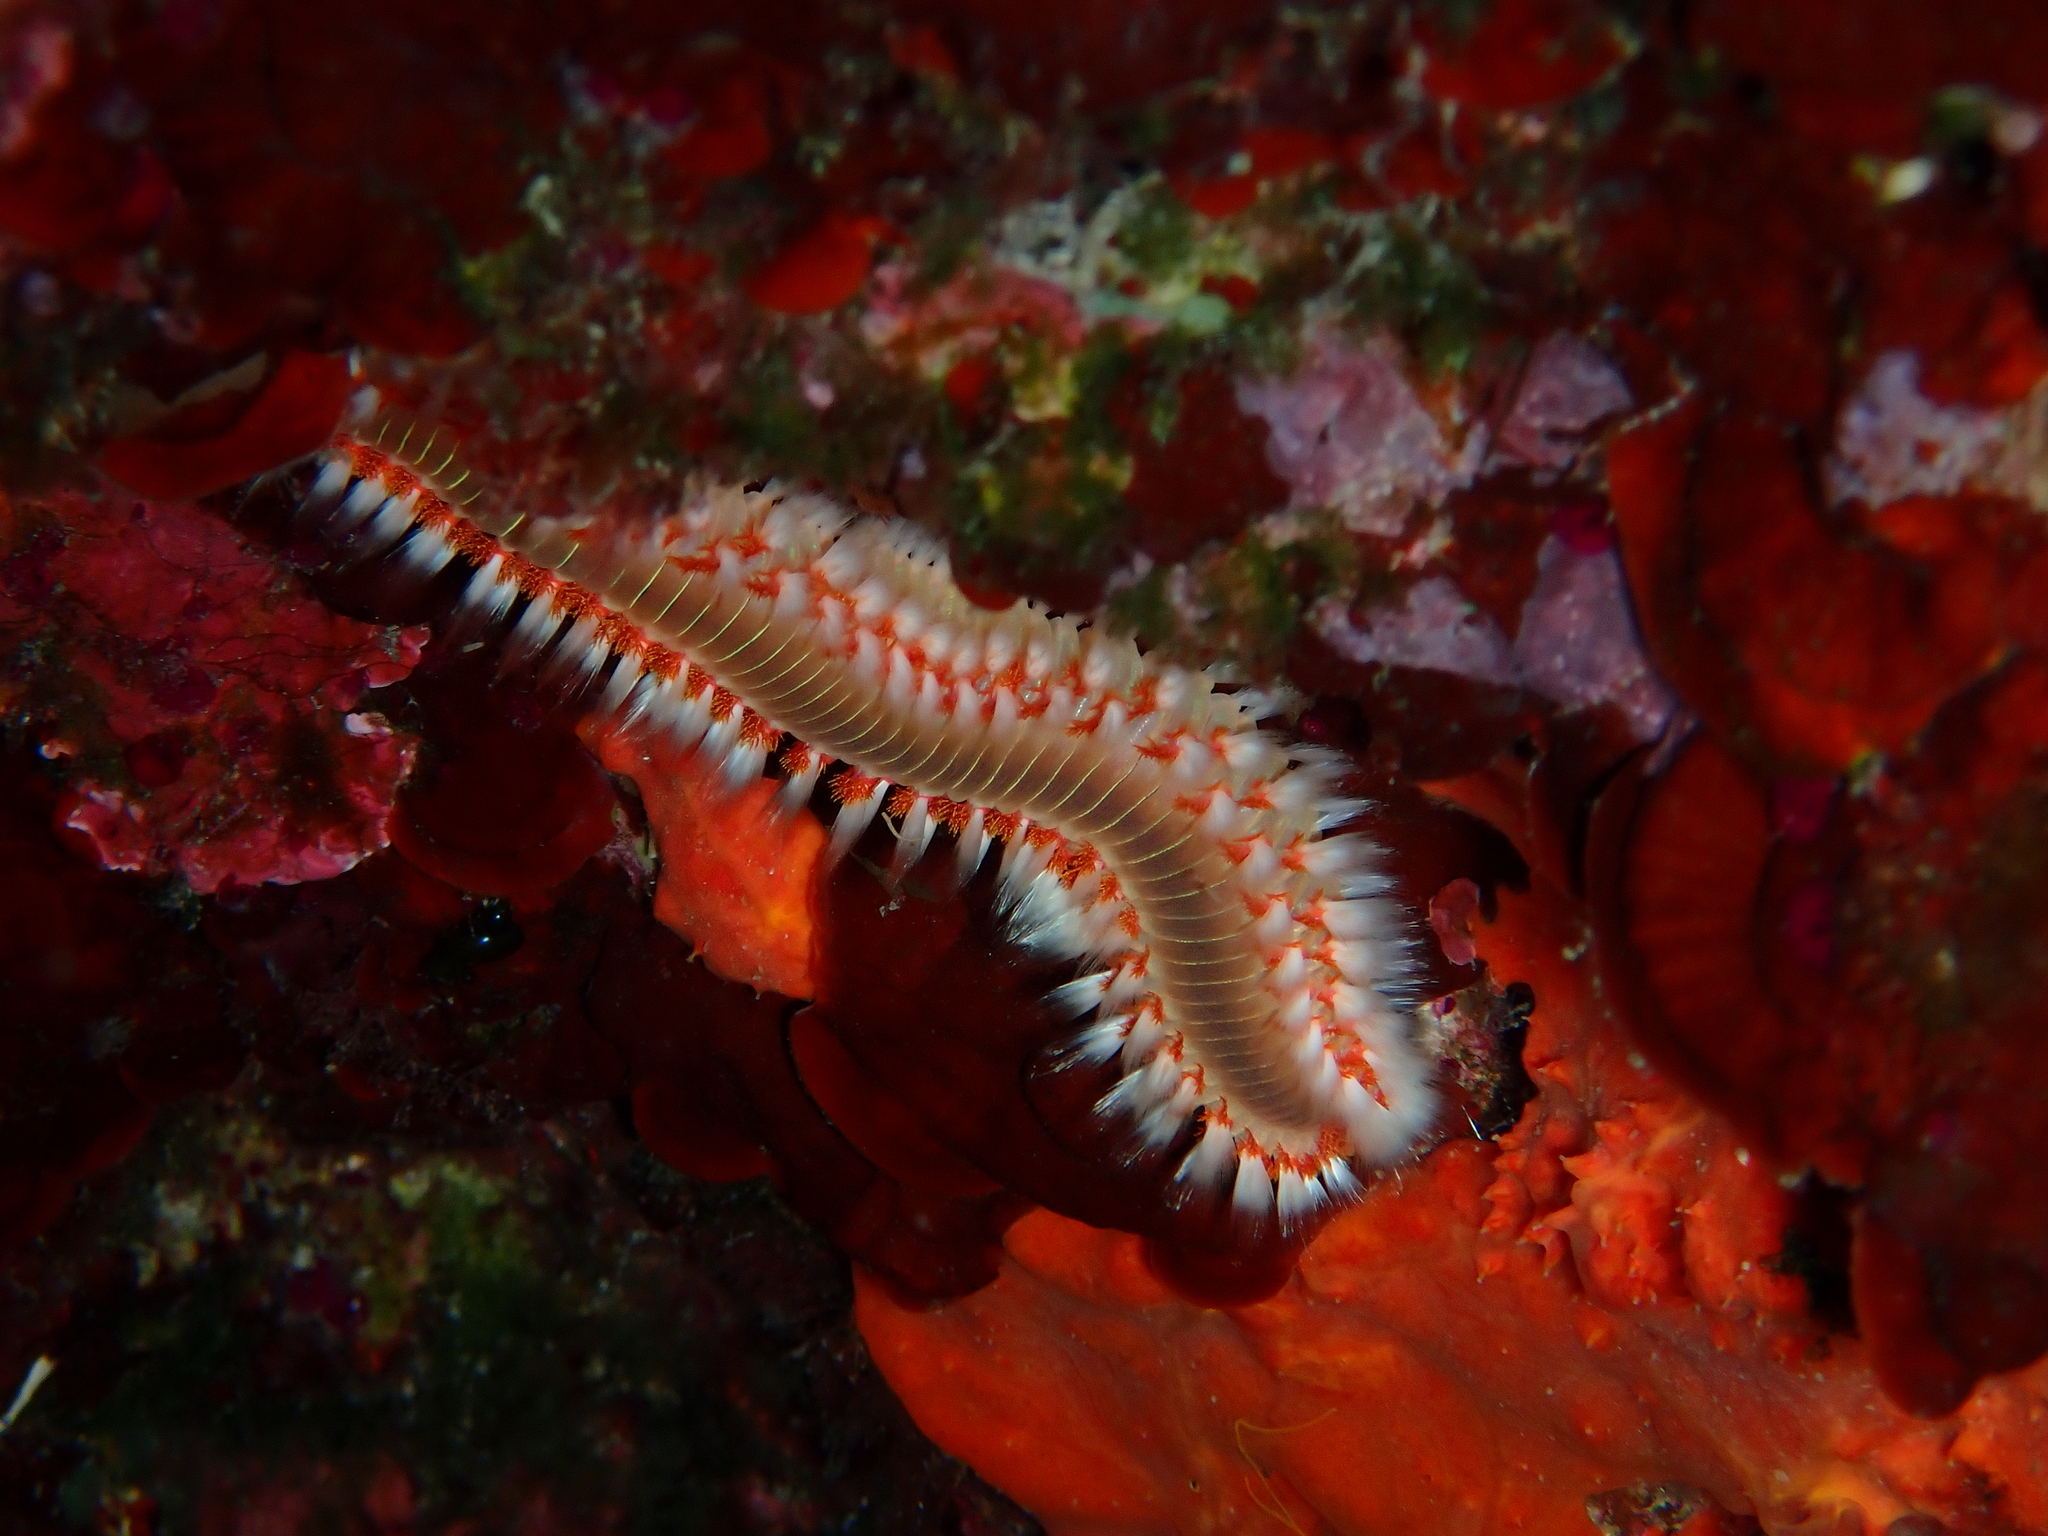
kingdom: Animalia
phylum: Annelida
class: Polychaeta
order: Amphinomida
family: Amphinomidae
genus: Hermodice
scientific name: Hermodice carunculata
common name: Bearded fireworm
